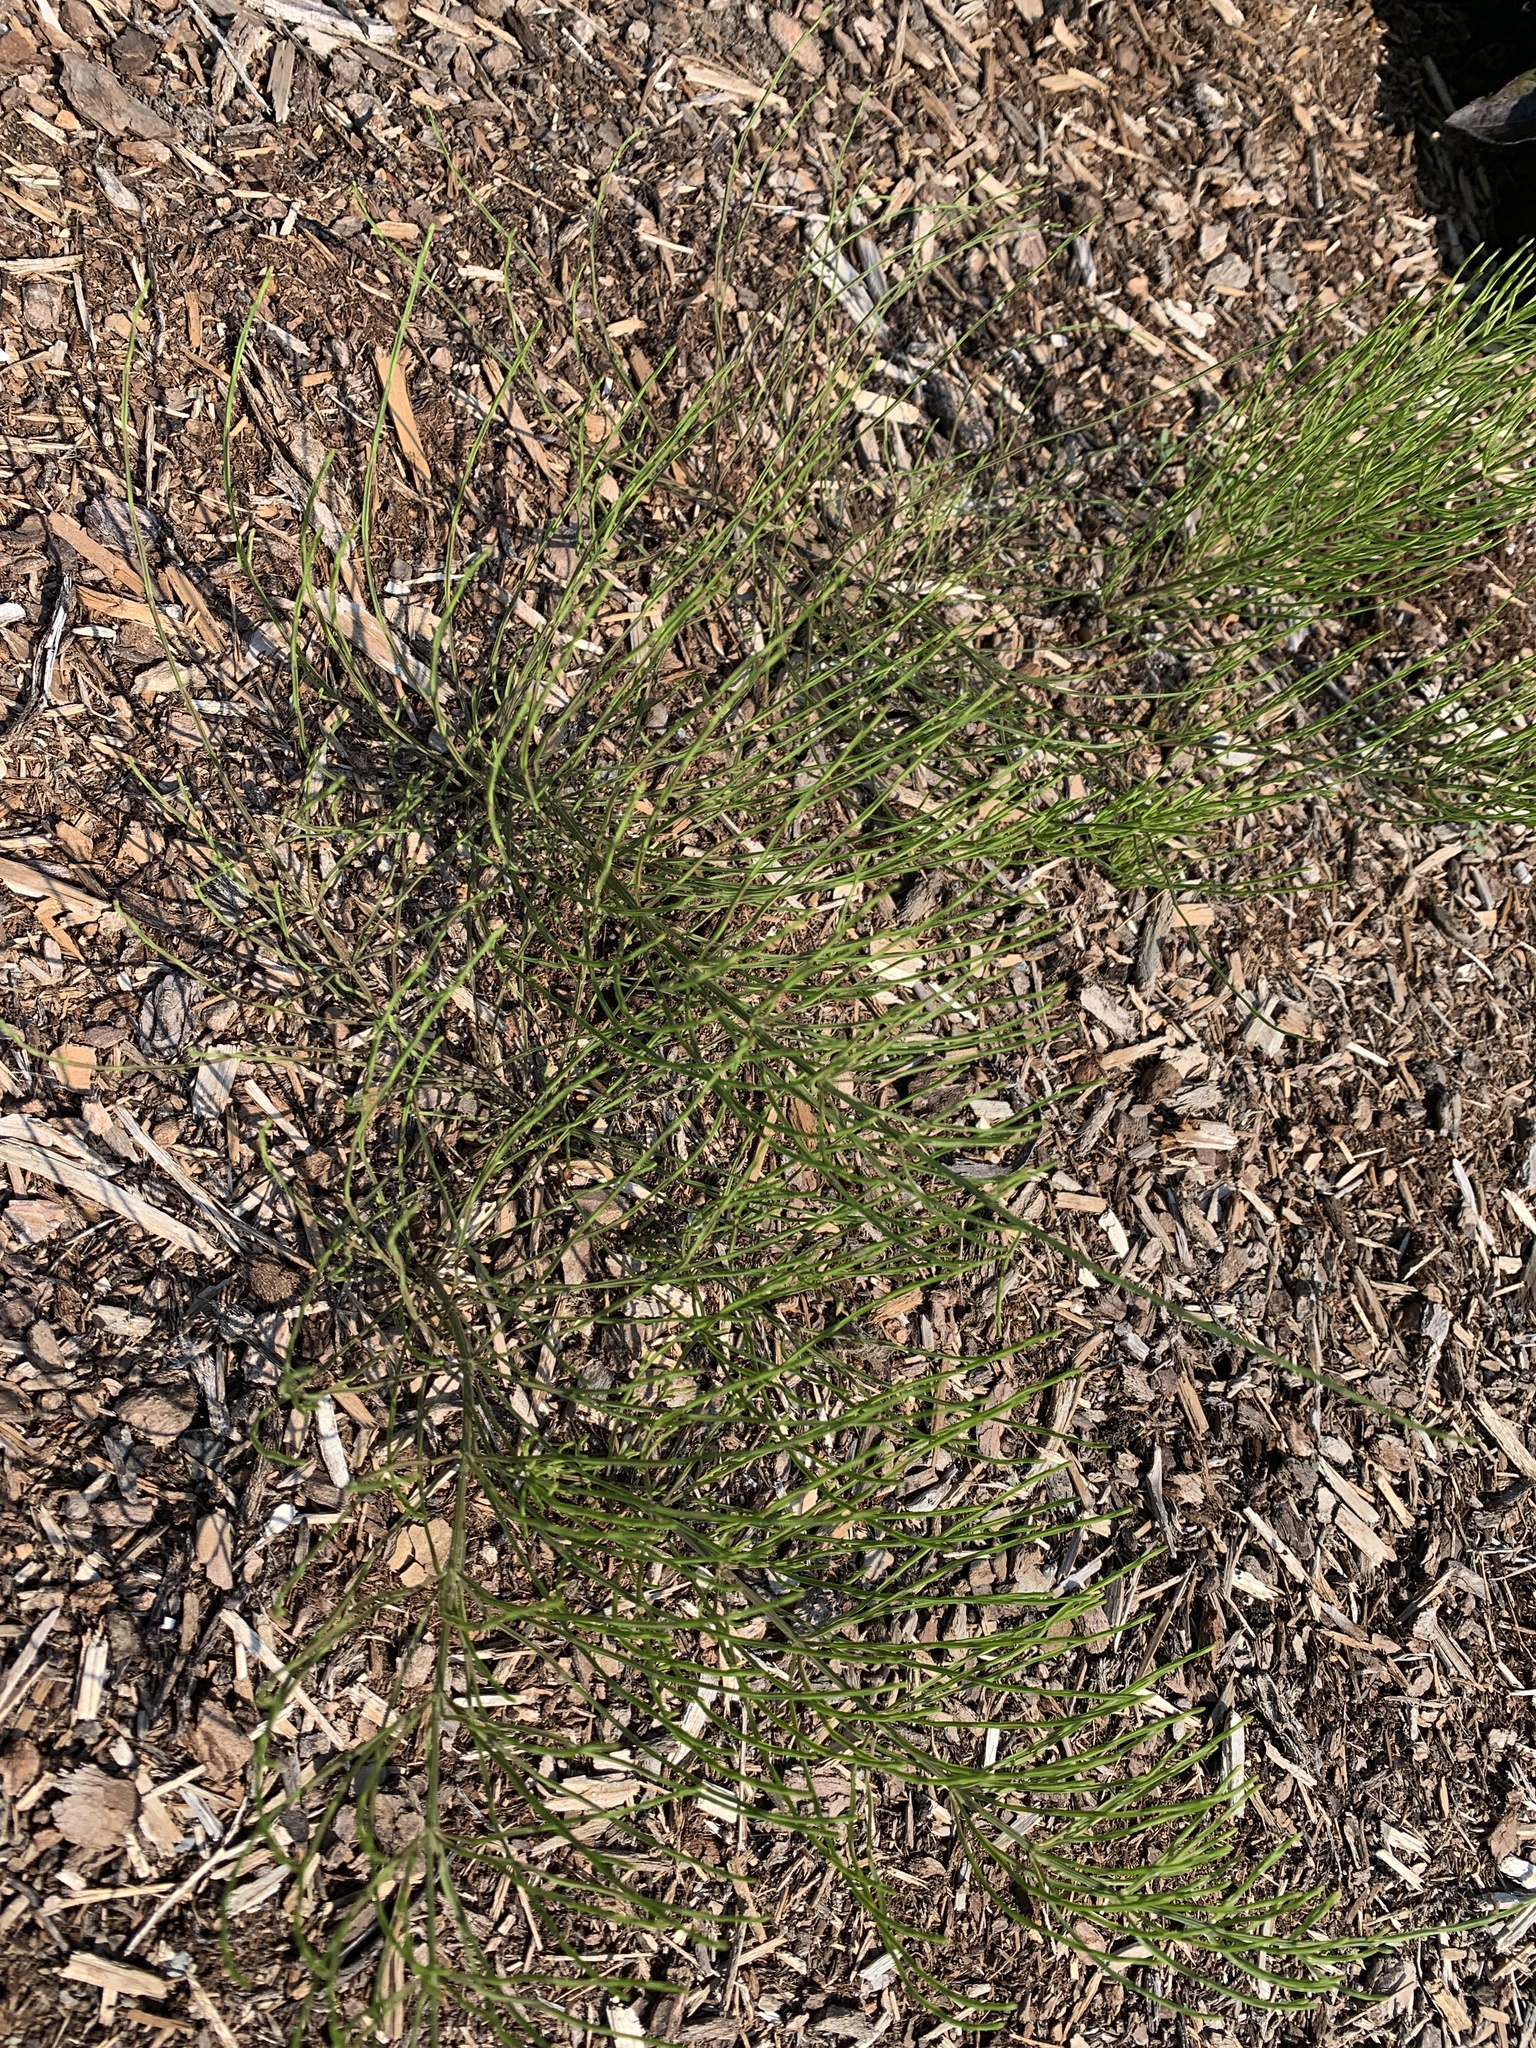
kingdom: Plantae
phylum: Tracheophyta
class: Polypodiopsida
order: Equisetales
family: Equisetaceae
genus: Equisetum
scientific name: Equisetum arvense
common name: Field horsetail
